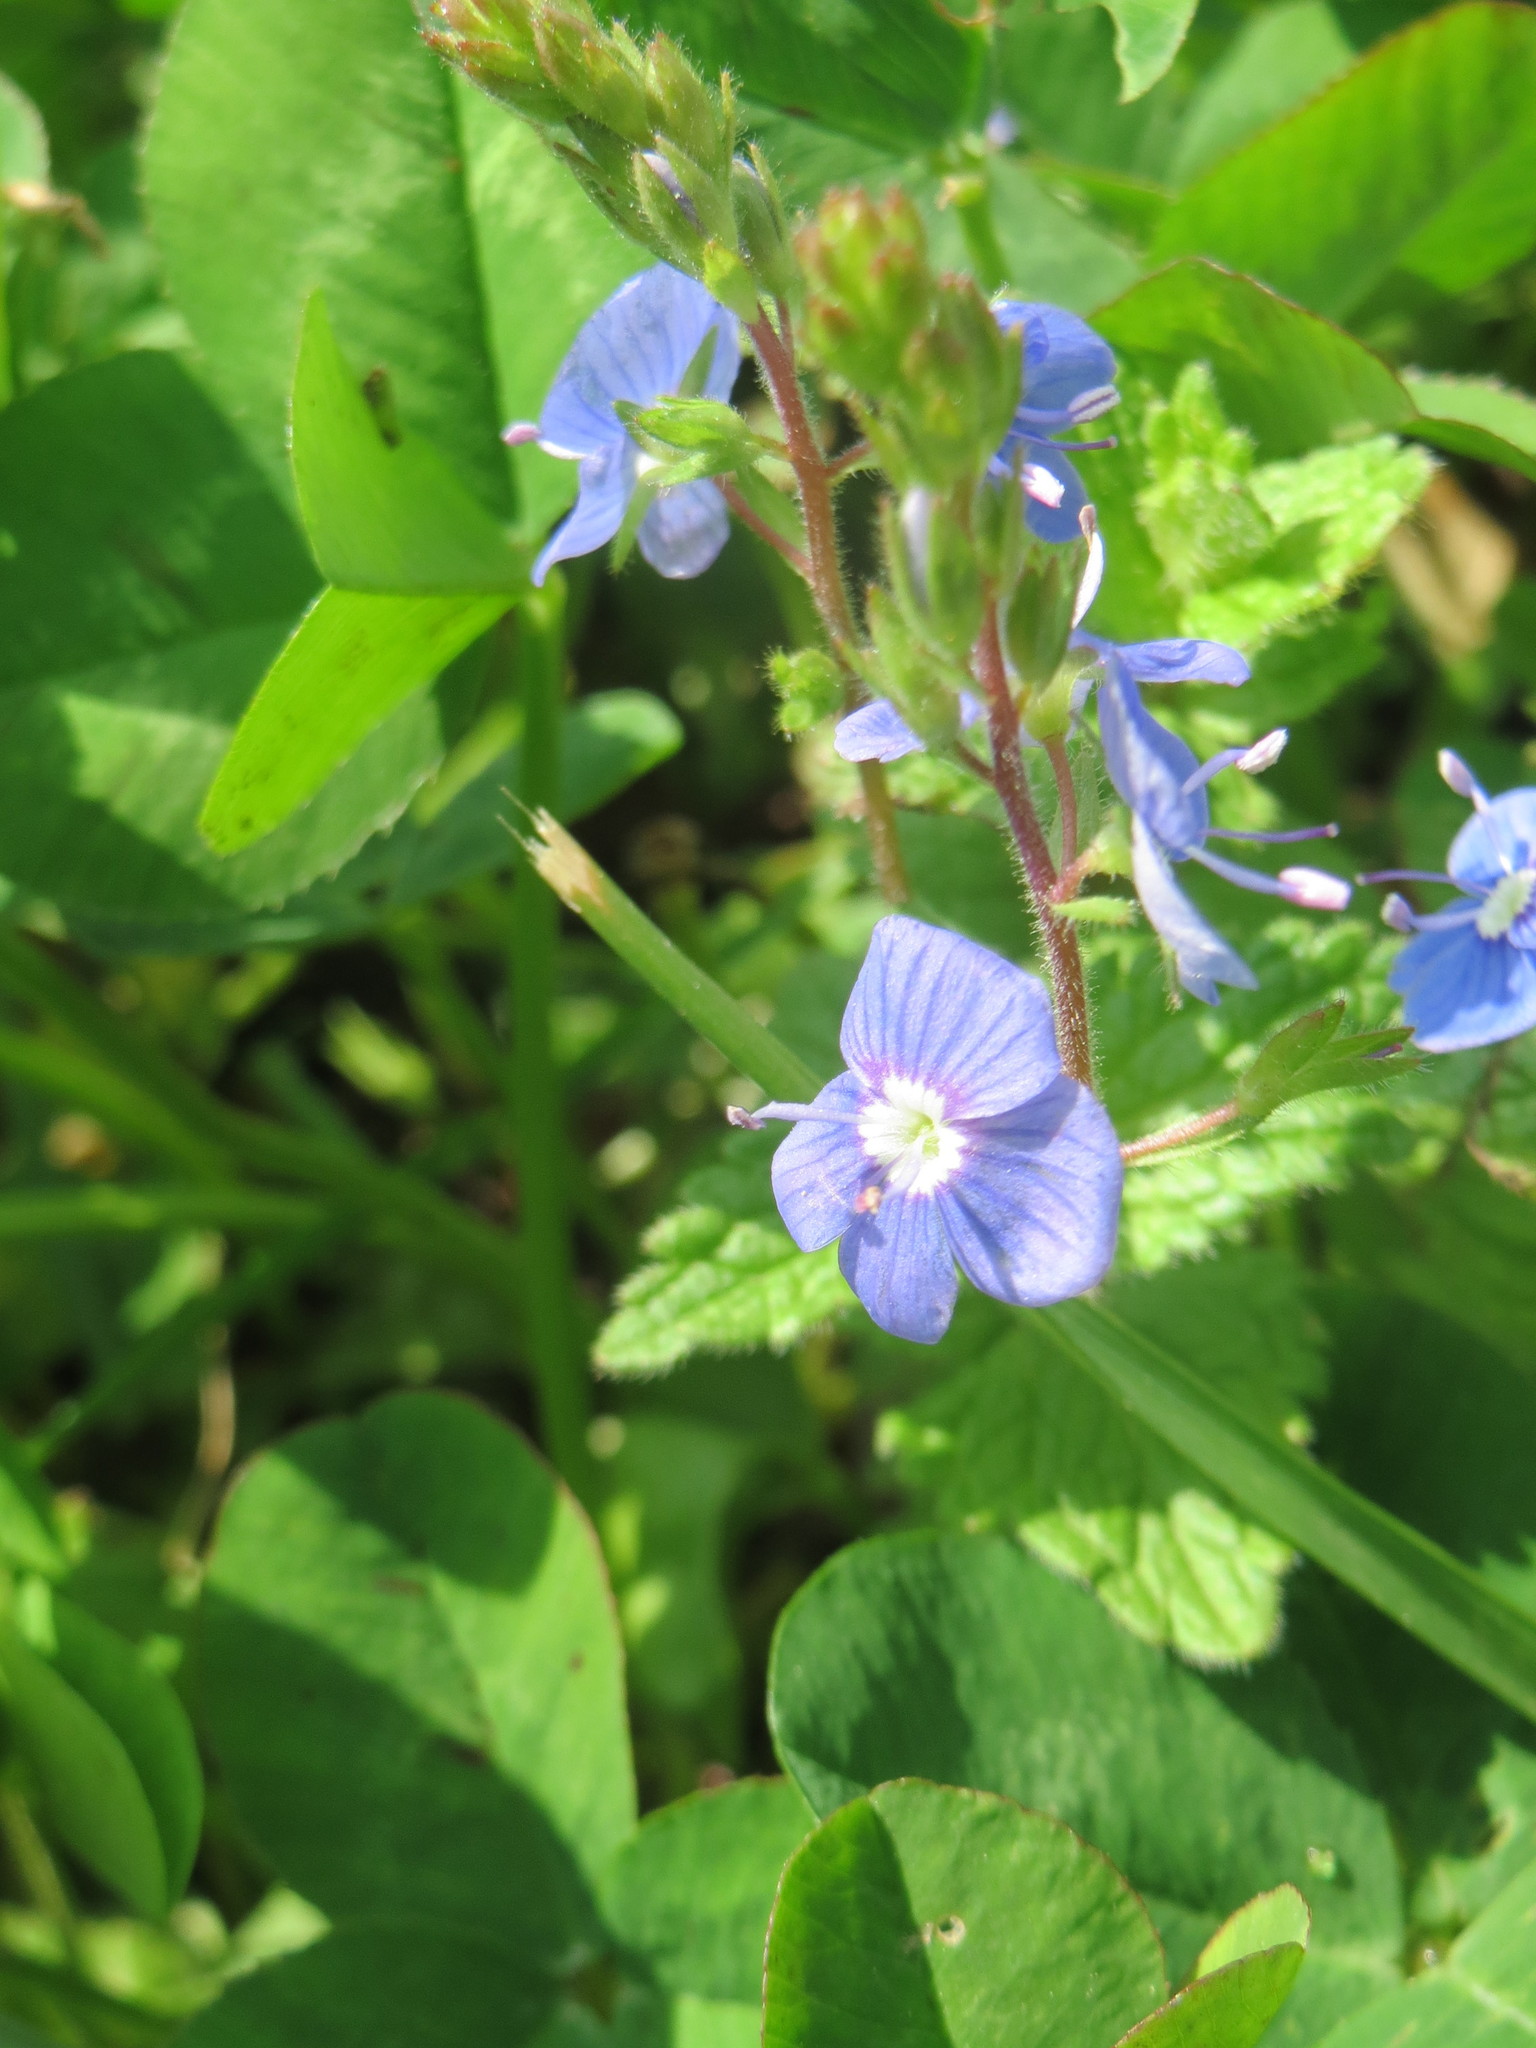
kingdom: Plantae
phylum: Tracheophyta
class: Magnoliopsida
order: Lamiales
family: Plantaginaceae
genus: Veronica
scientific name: Veronica chamaedrys
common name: Germander speedwell
